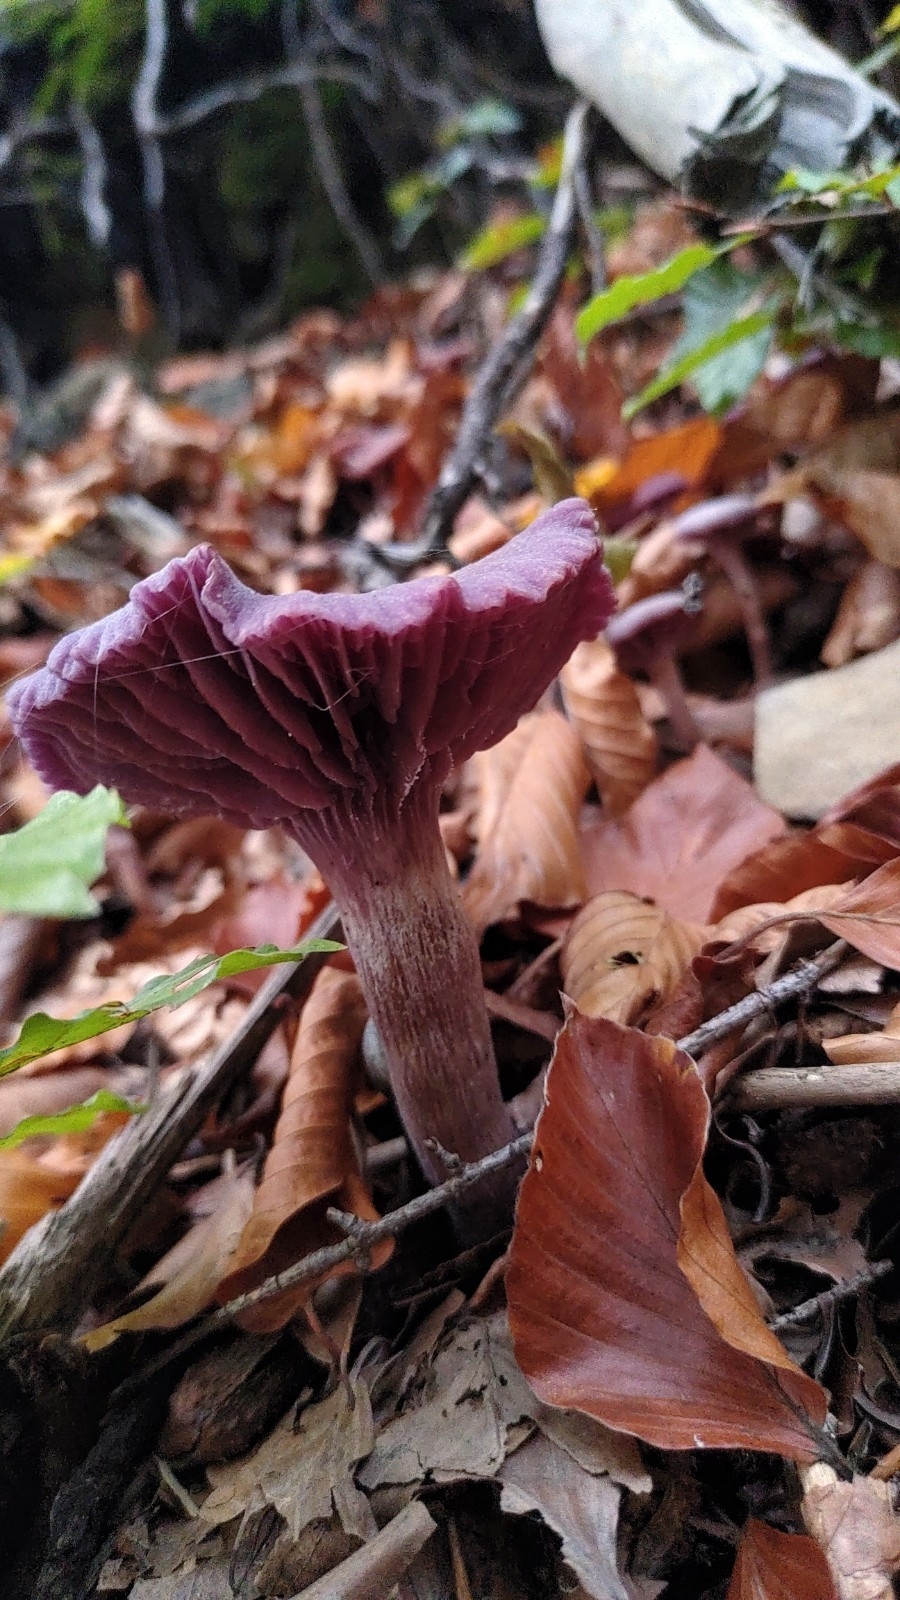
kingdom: Fungi
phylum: Basidiomycota
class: Agaricomycetes
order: Agaricales
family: Hydnangiaceae
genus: Laccaria
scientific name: Laccaria amethystina
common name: Amethyst deceiver
